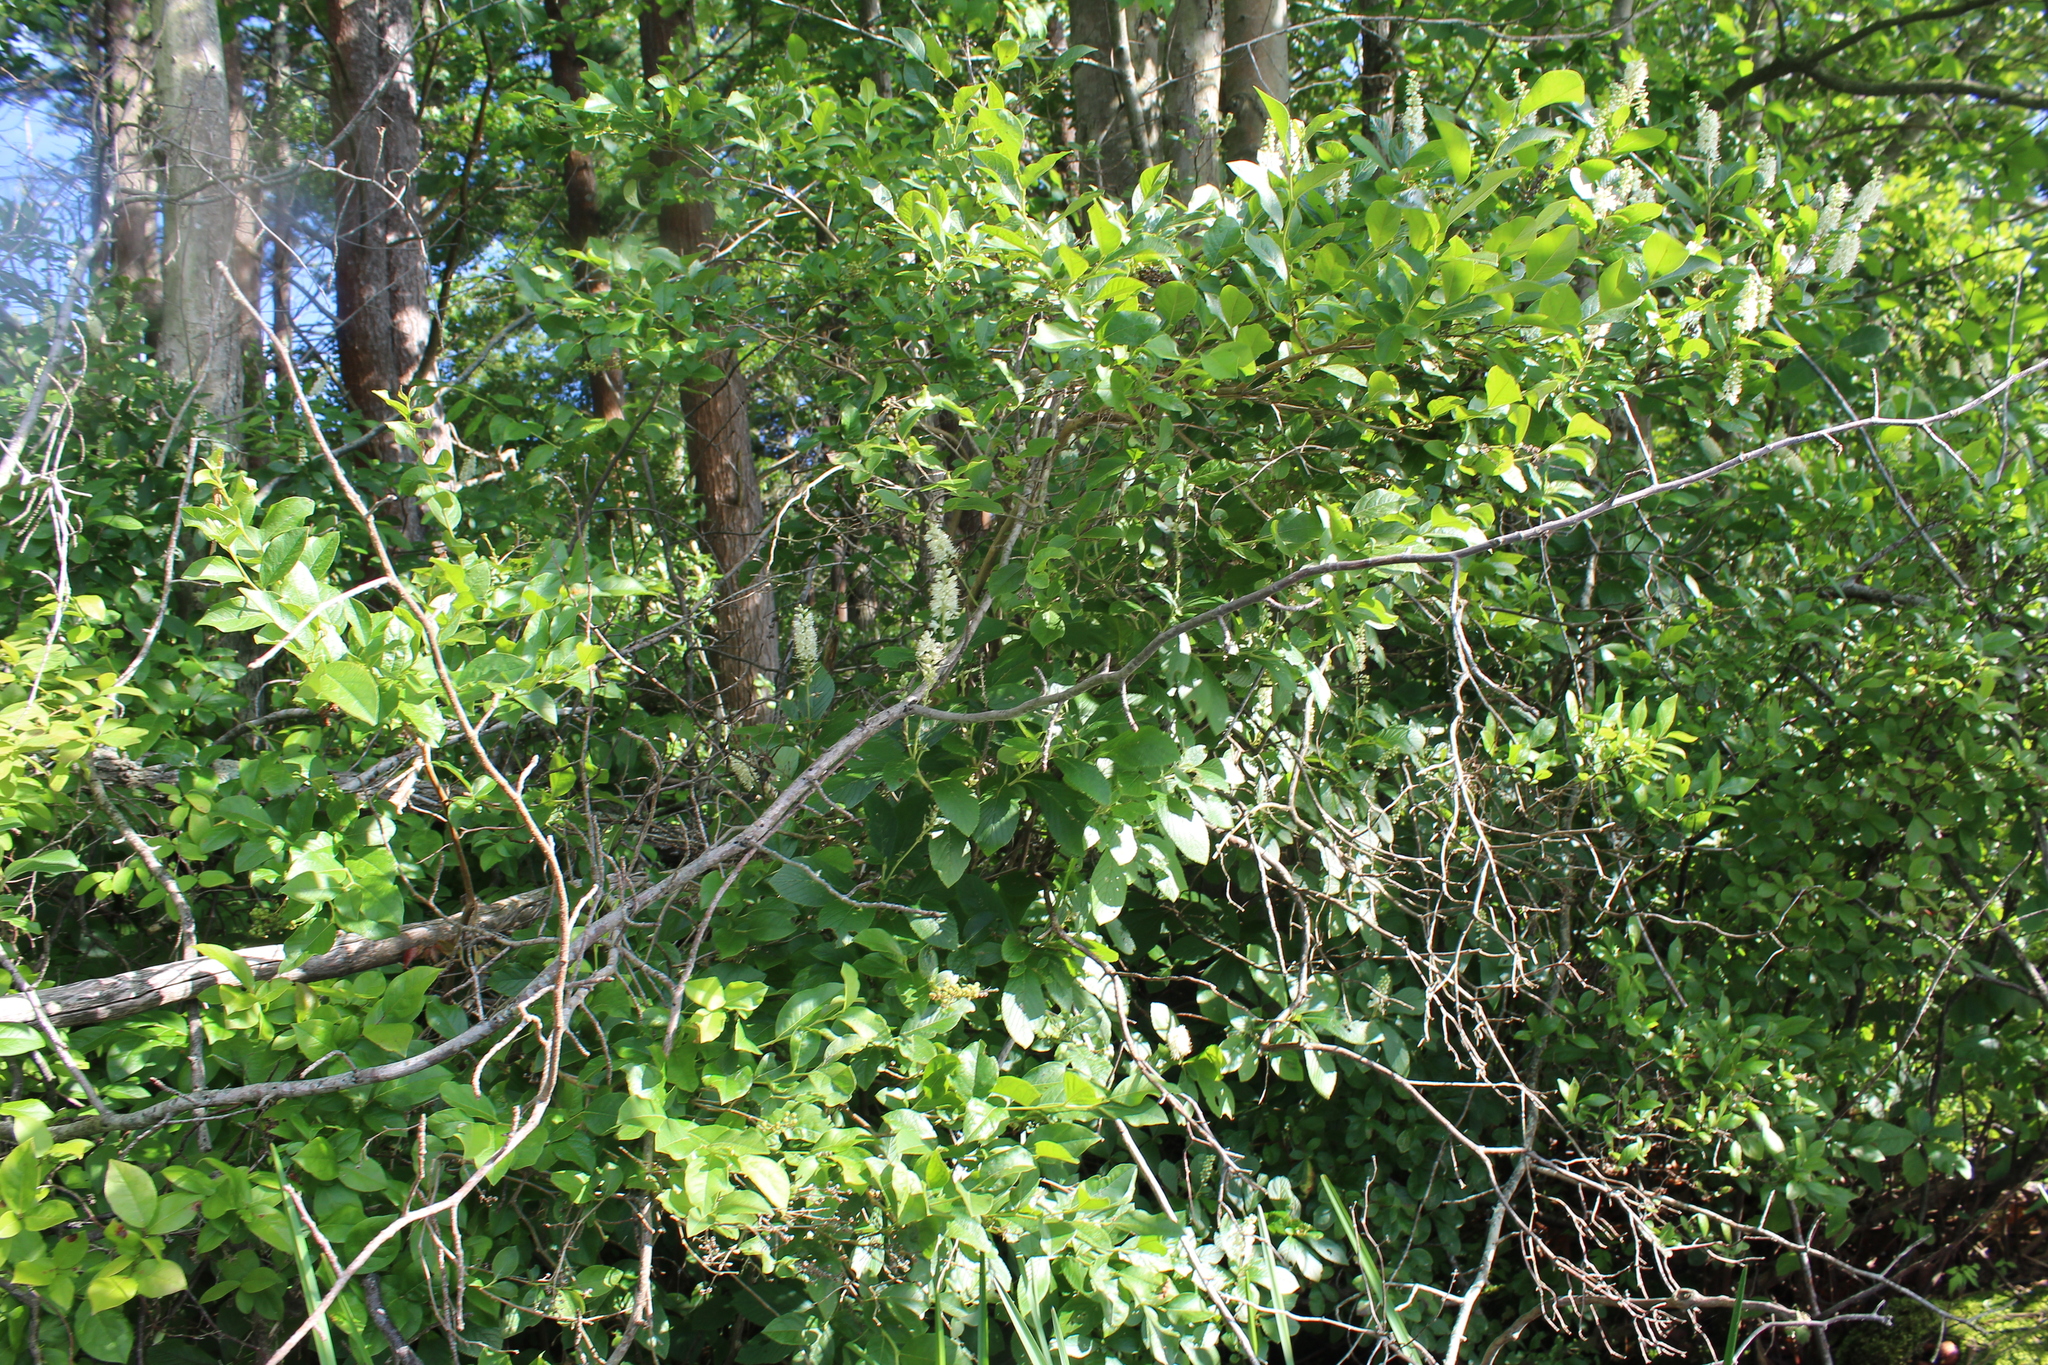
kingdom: Plantae
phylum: Tracheophyta
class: Magnoliopsida
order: Ericales
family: Ericaceae
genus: Lyonia
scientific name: Lyonia ligustrina
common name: Maleberry
